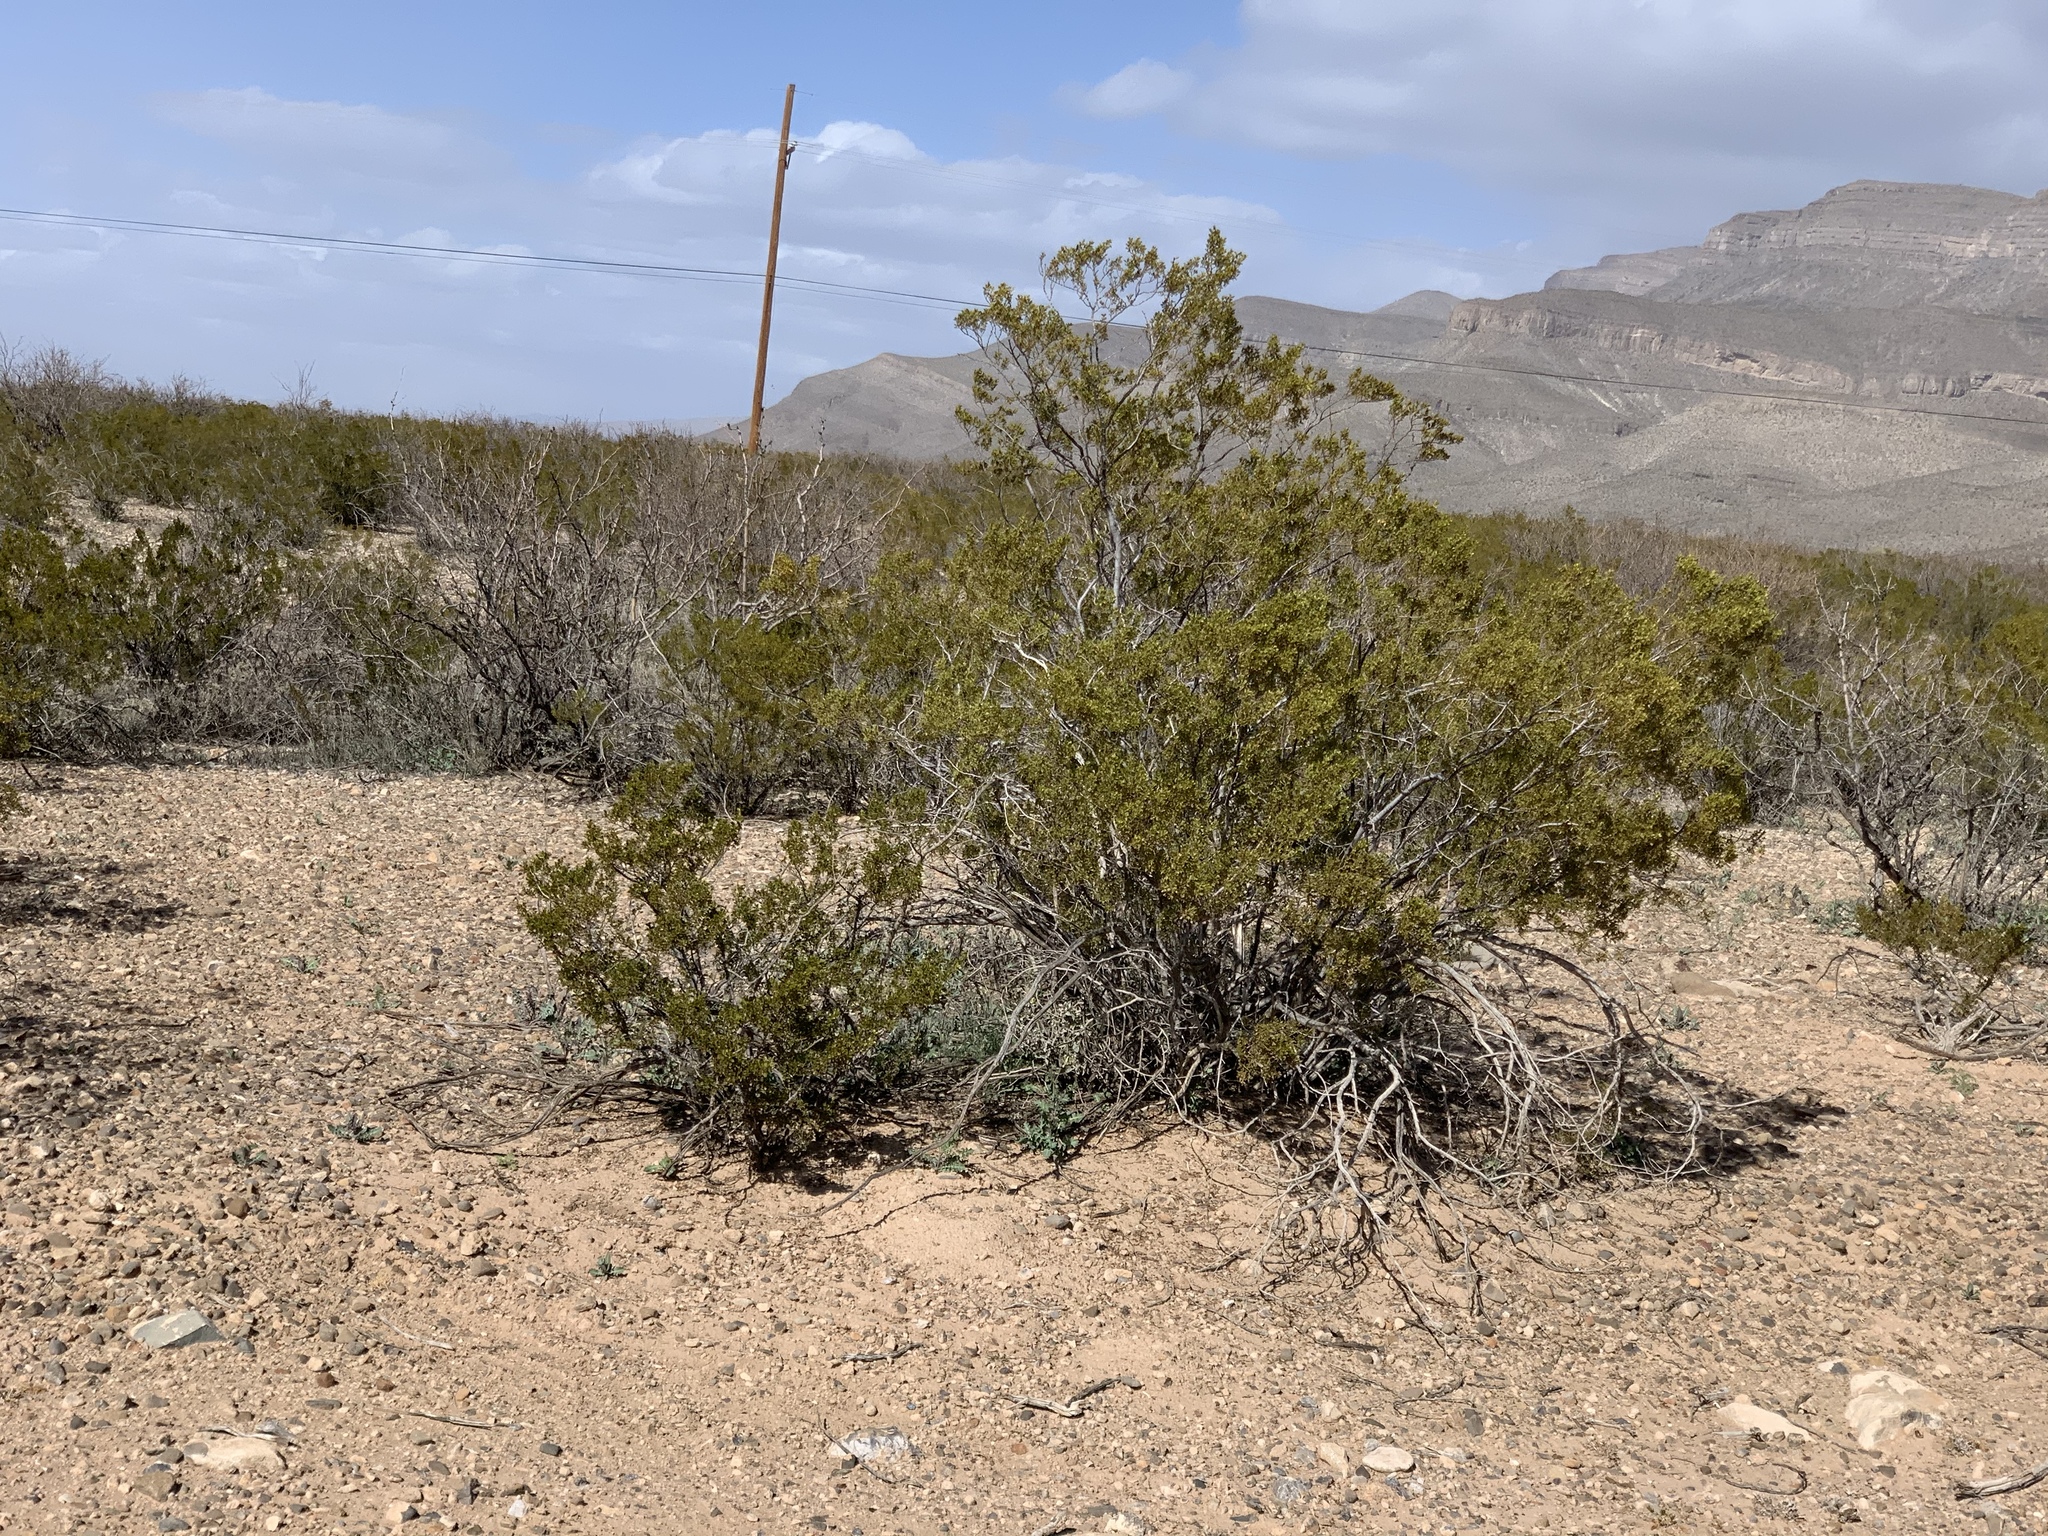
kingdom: Plantae
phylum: Tracheophyta
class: Magnoliopsida
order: Zygophyllales
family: Zygophyllaceae
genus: Larrea
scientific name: Larrea tridentata
